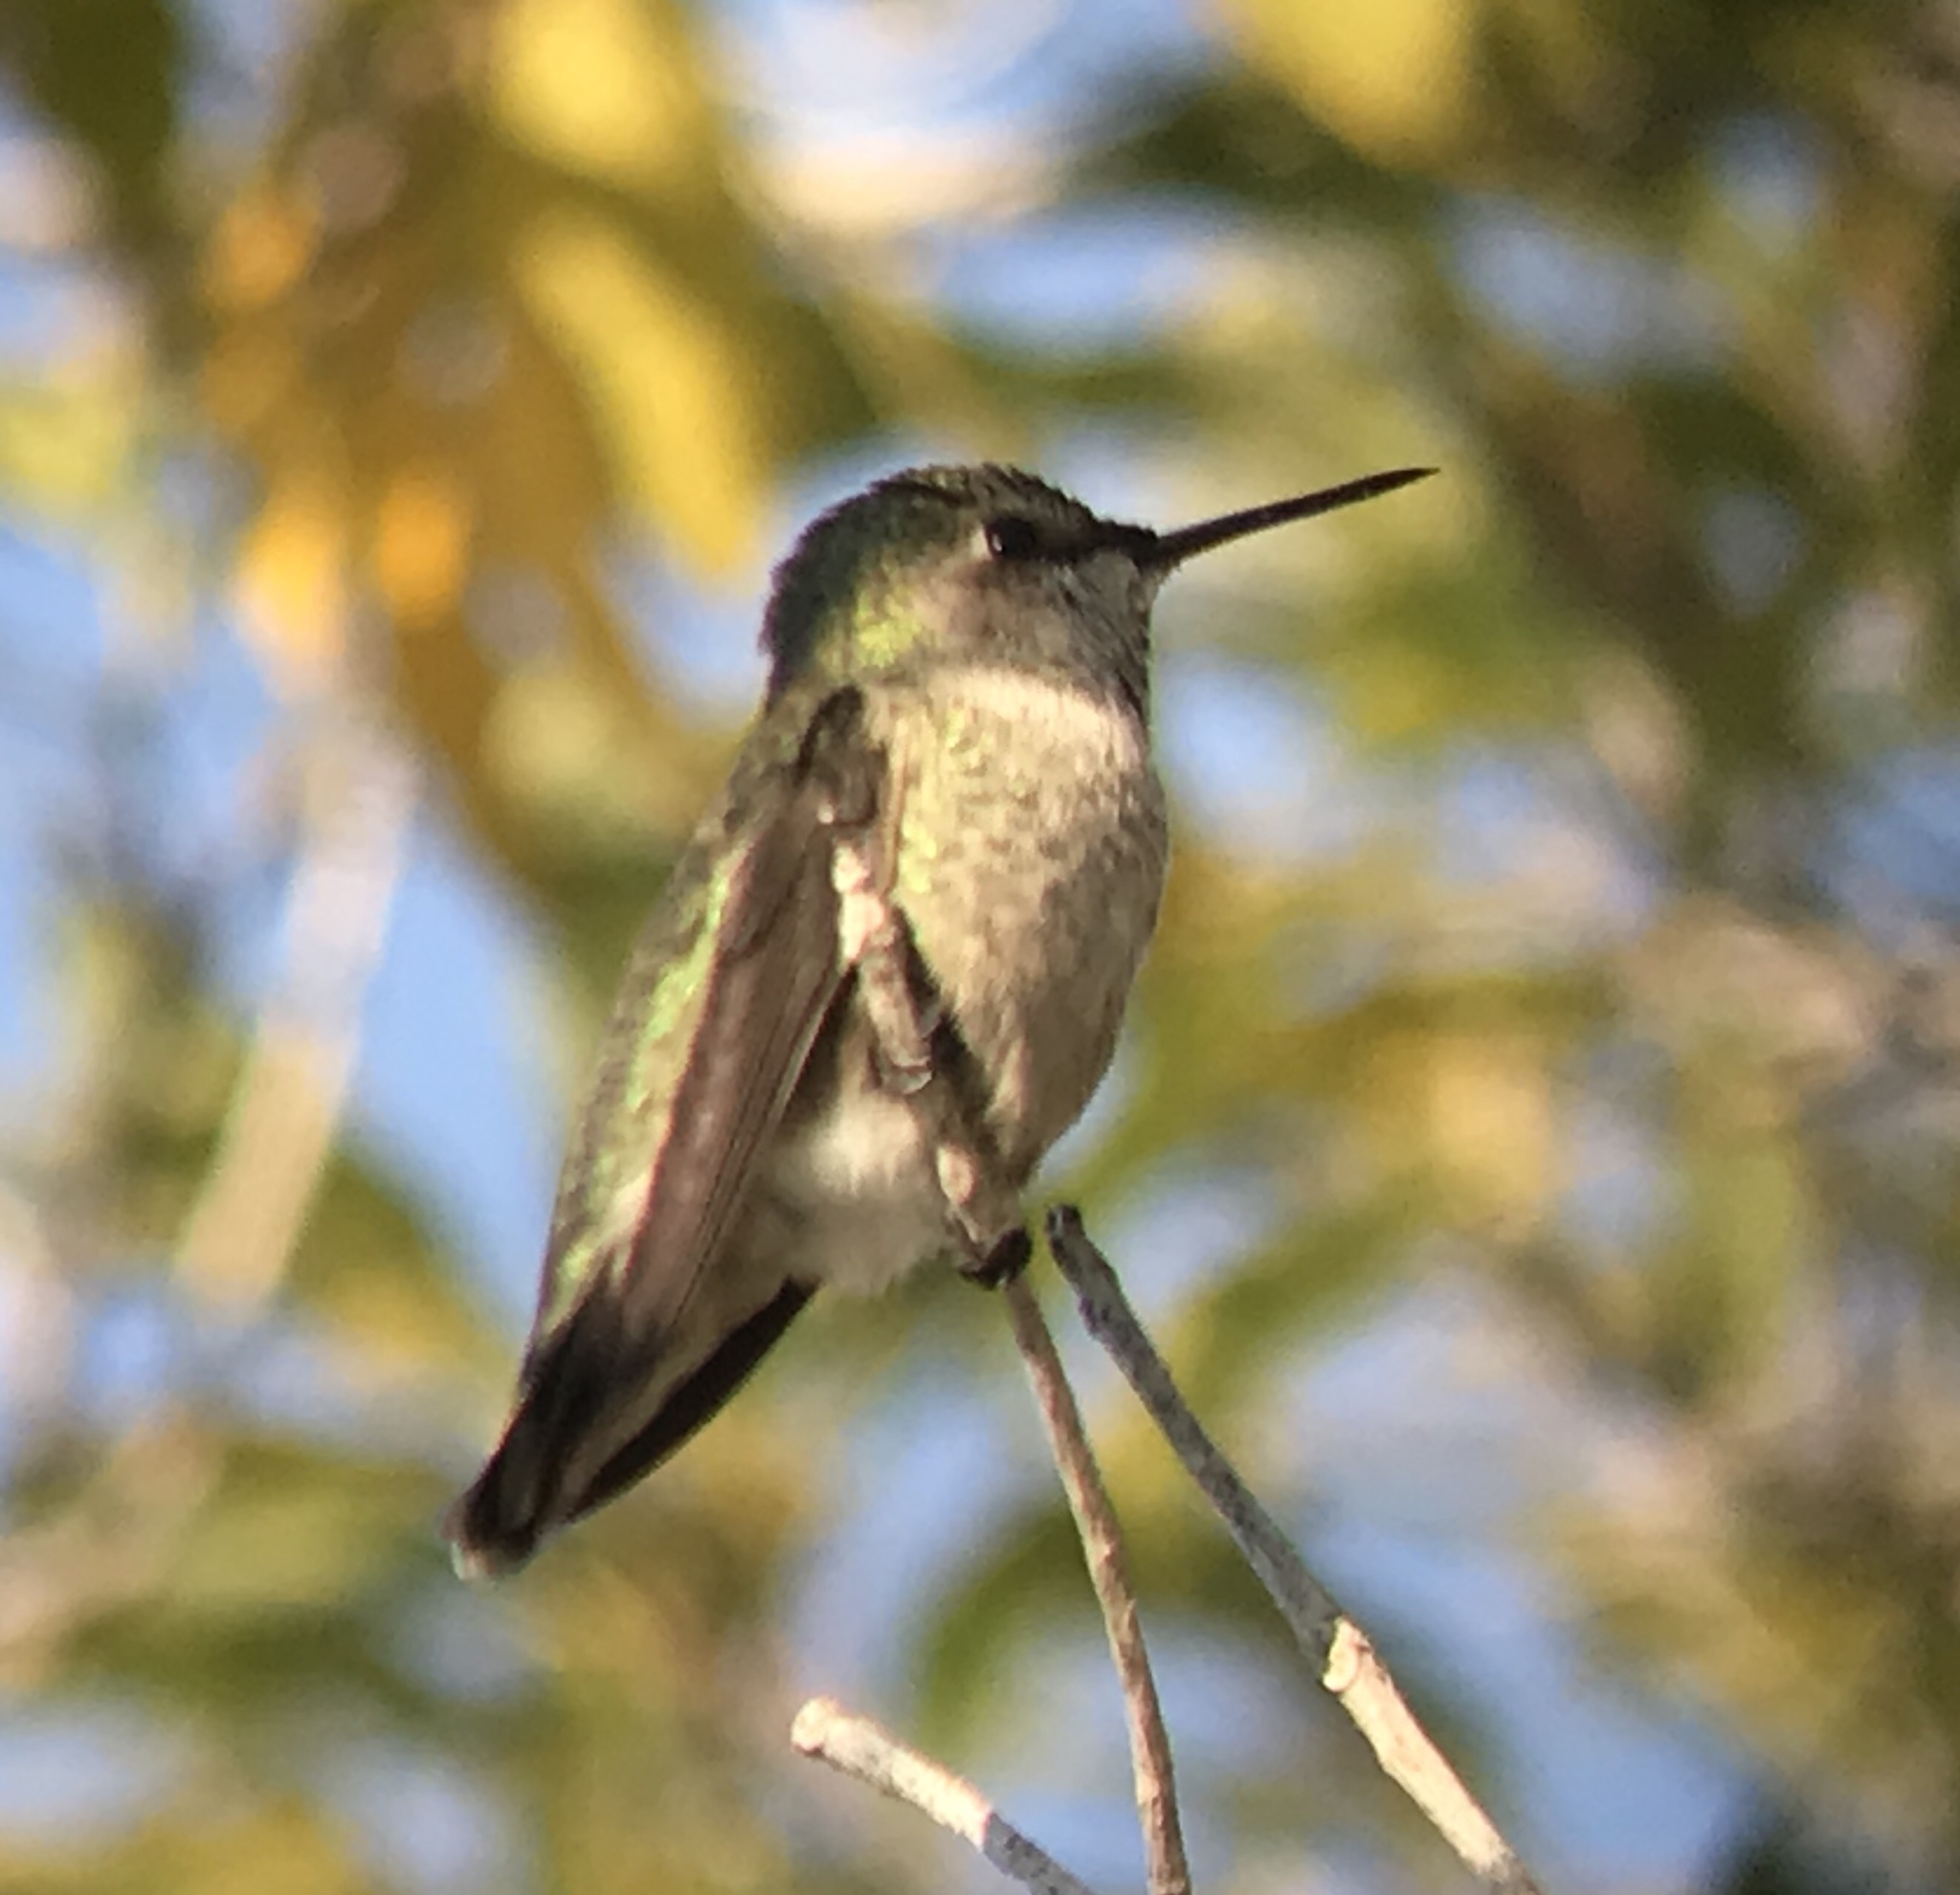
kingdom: Animalia
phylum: Chordata
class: Aves
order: Apodiformes
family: Trochilidae
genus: Calypte
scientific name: Calypte anna
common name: Anna's hummingbird
